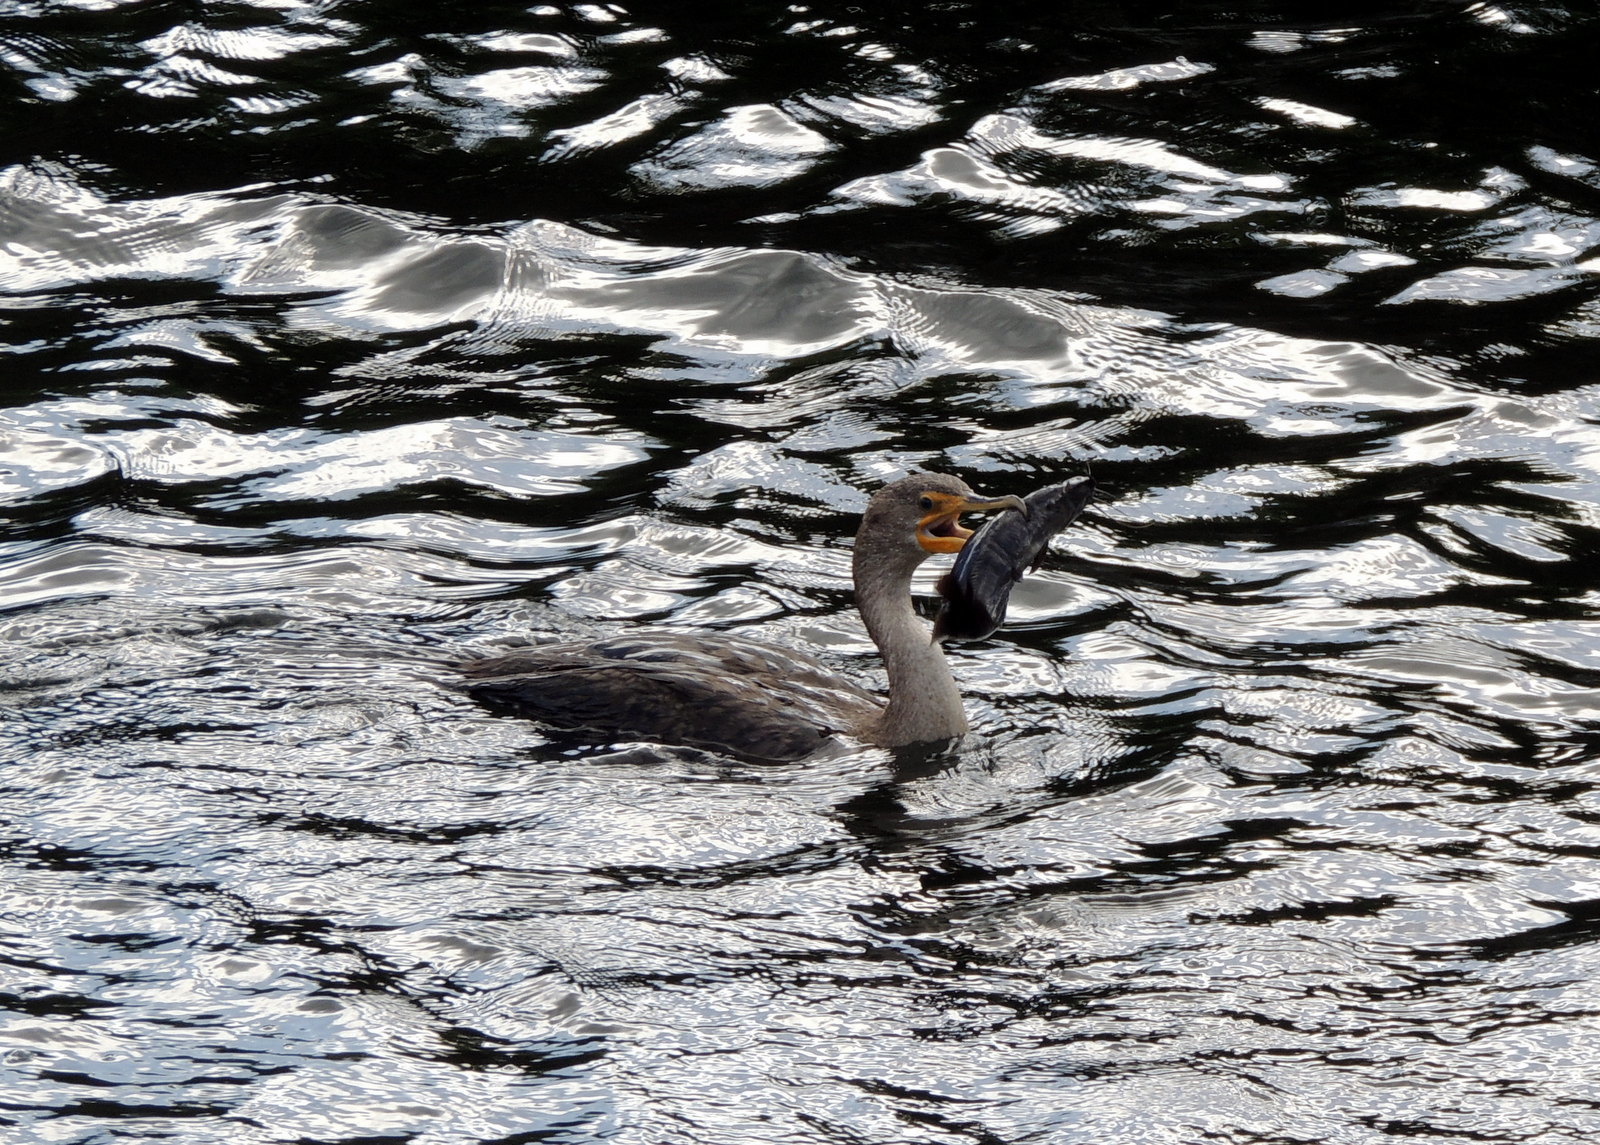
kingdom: Animalia
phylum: Chordata
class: Aves
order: Suliformes
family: Phalacrocoracidae
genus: Phalacrocorax
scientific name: Phalacrocorax auritus
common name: Double-crested cormorant
